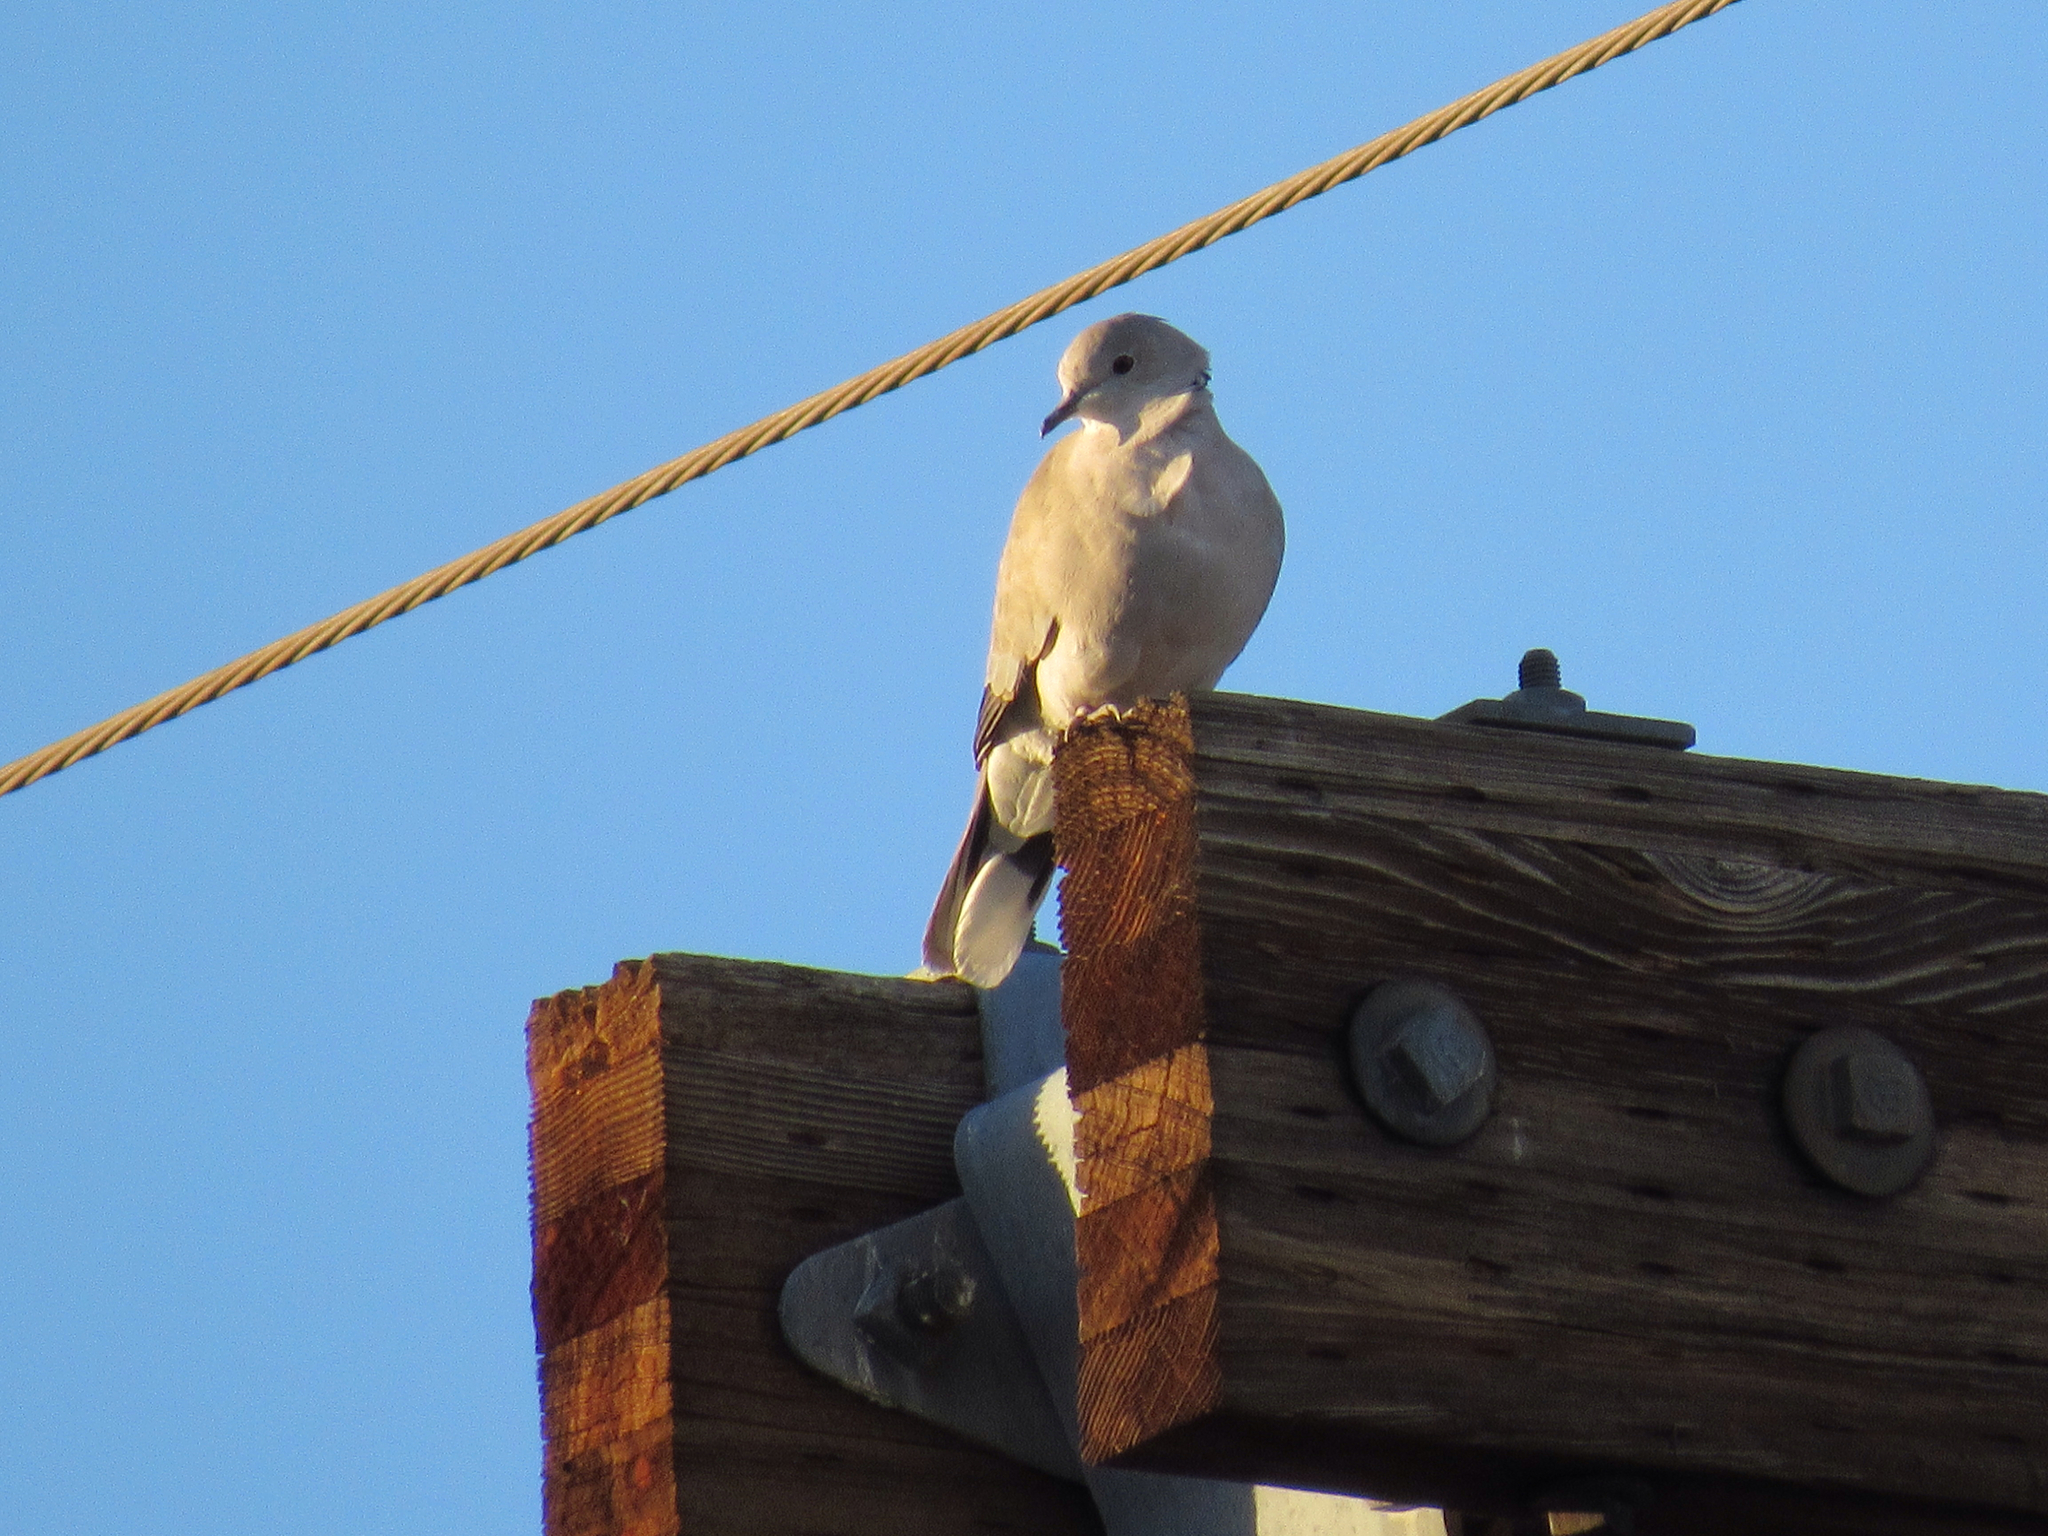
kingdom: Animalia
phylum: Chordata
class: Aves
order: Columbiformes
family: Columbidae
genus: Streptopelia
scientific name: Streptopelia decaocto
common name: Eurasian collared dove
